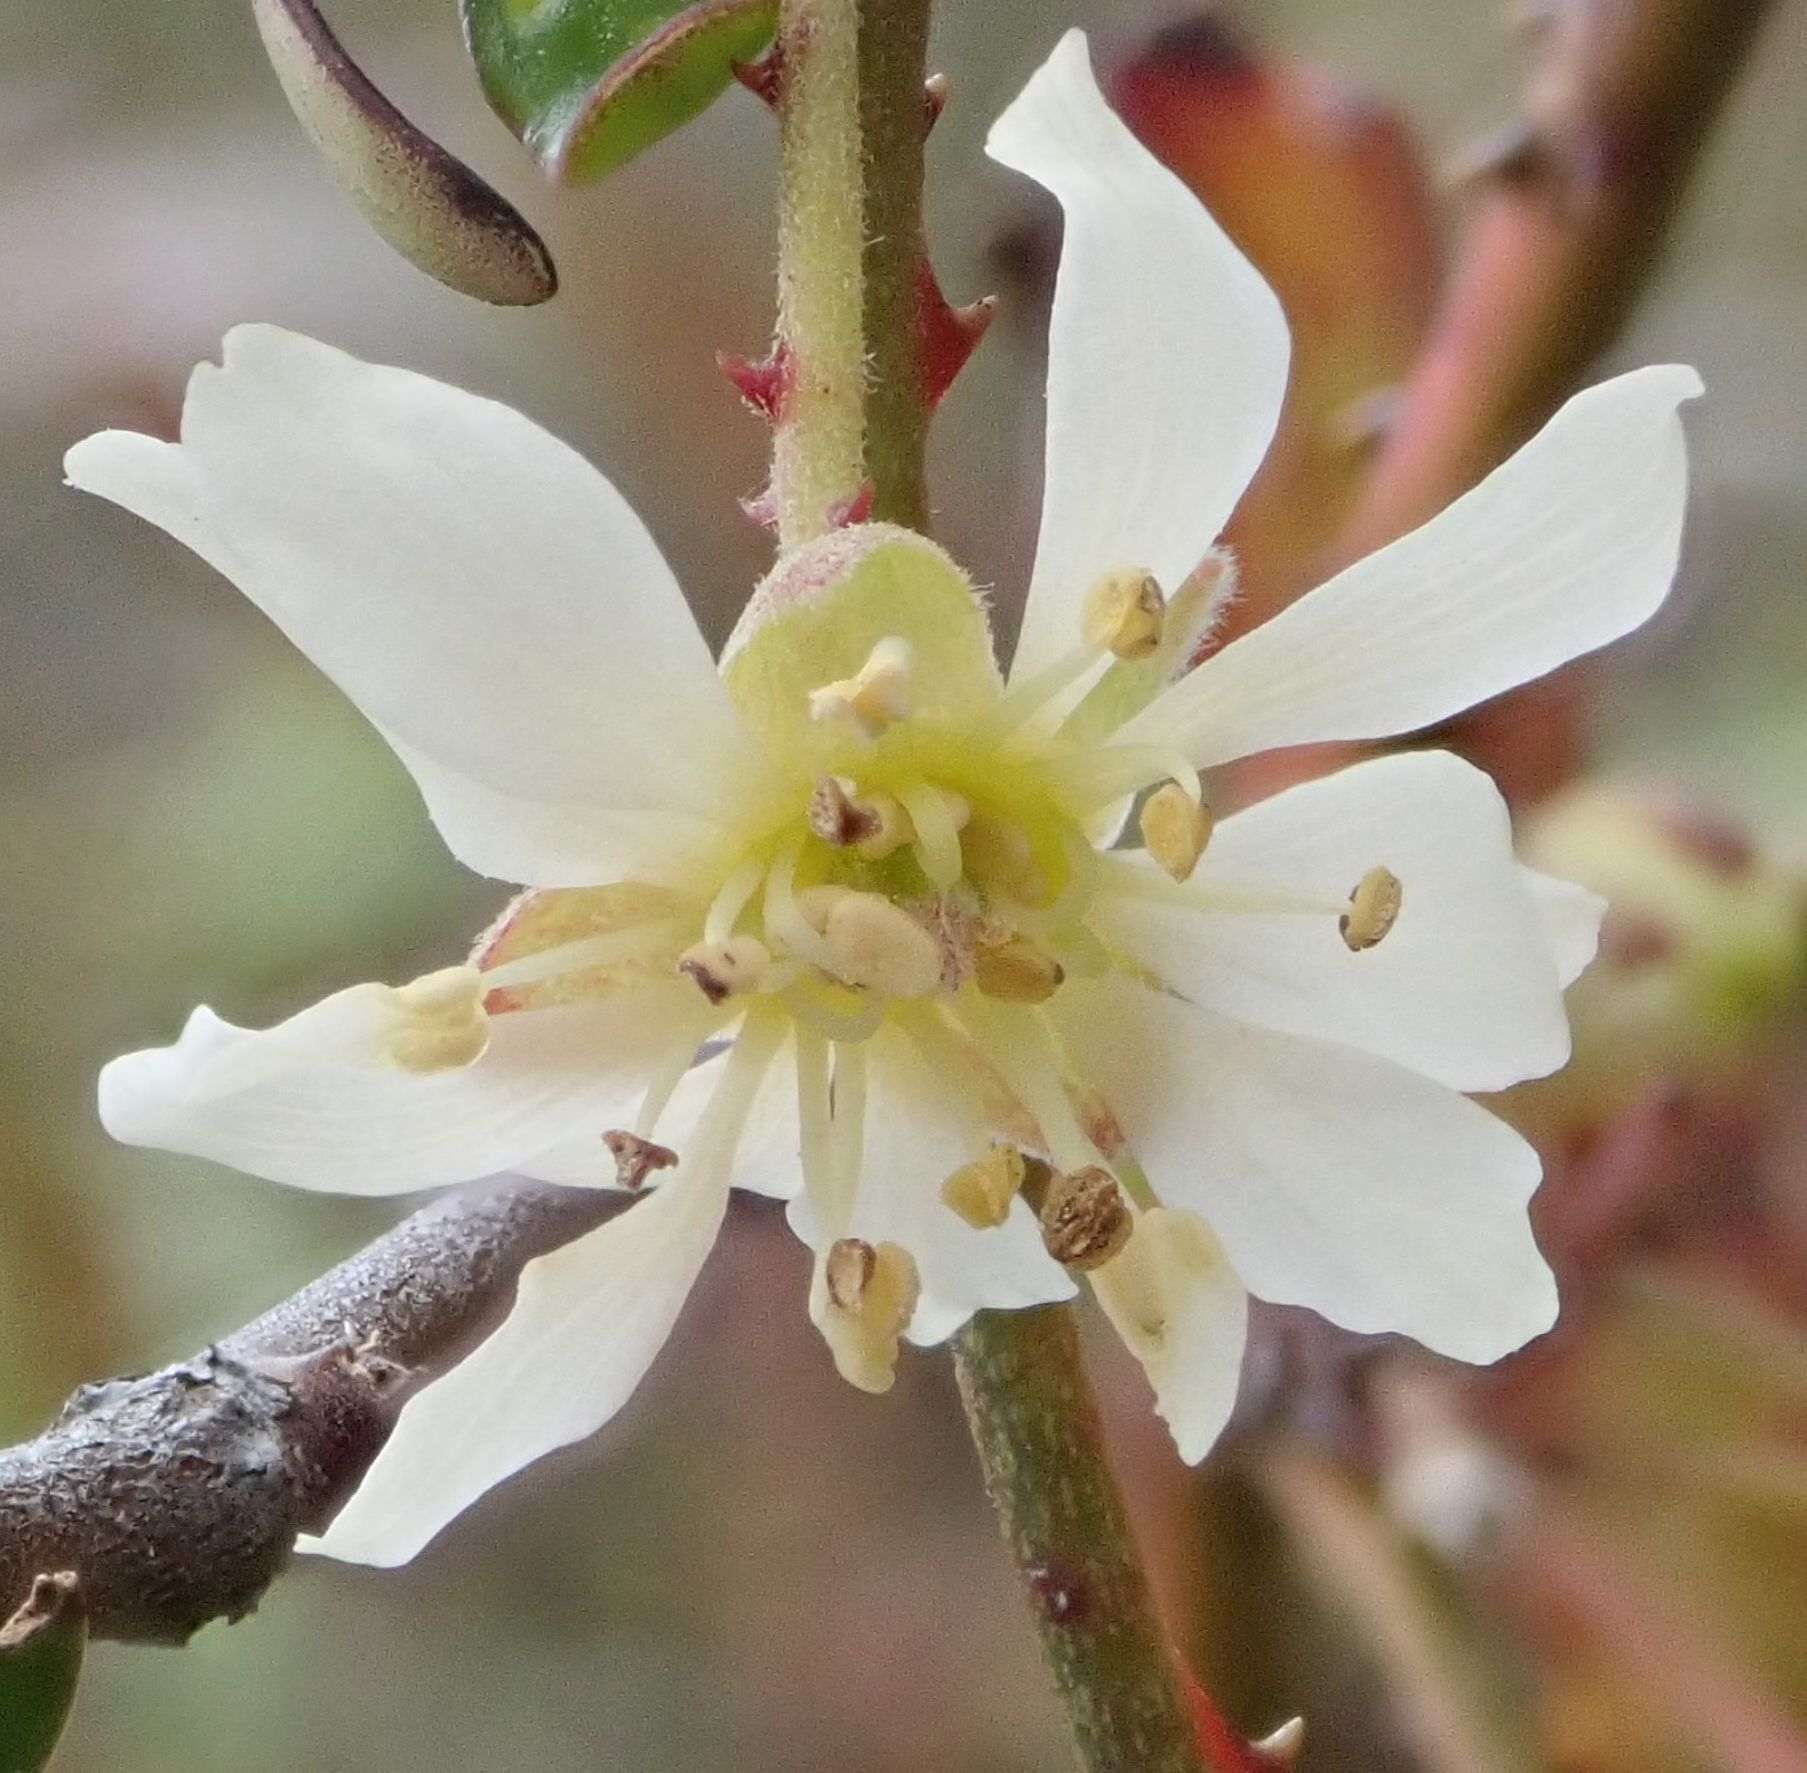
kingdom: Plantae
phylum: Tracheophyta
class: Magnoliopsida
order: Rosales
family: Rosaceae
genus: Rubus
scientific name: Rubus schmidelioides
